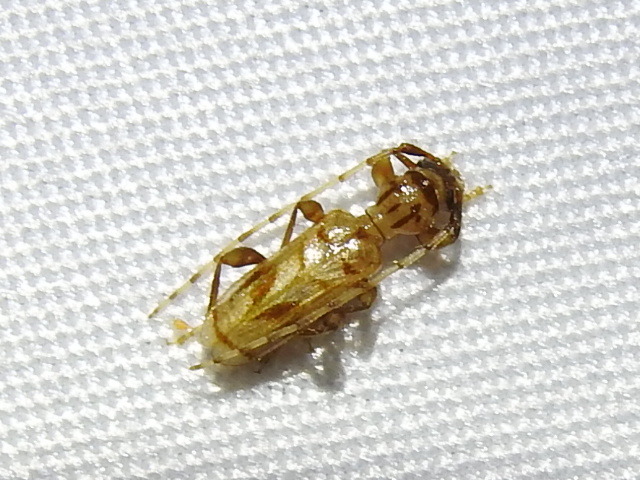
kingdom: Animalia
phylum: Arthropoda
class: Insecta
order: Coleoptera
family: Cerambycidae
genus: Obrium
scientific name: Obrium maculatum
